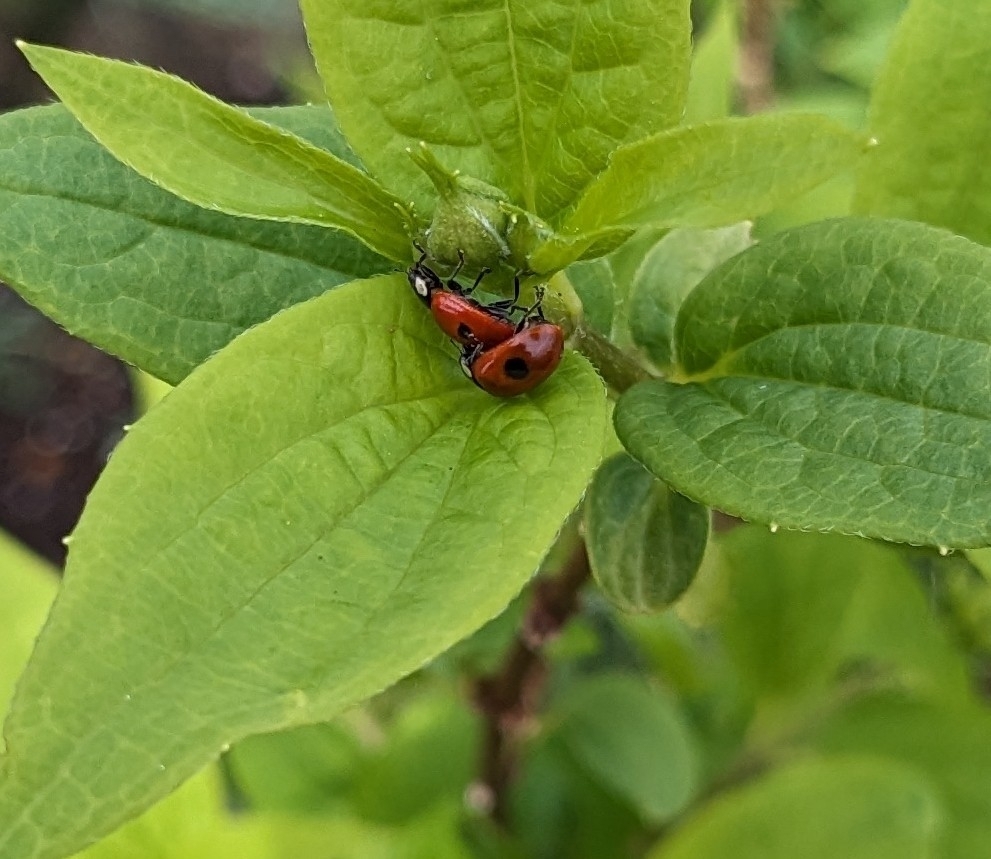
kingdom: Animalia
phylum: Arthropoda
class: Insecta
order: Coleoptera
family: Coccinellidae
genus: Adalia
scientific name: Adalia bipunctata
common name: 2-spot ladybird
